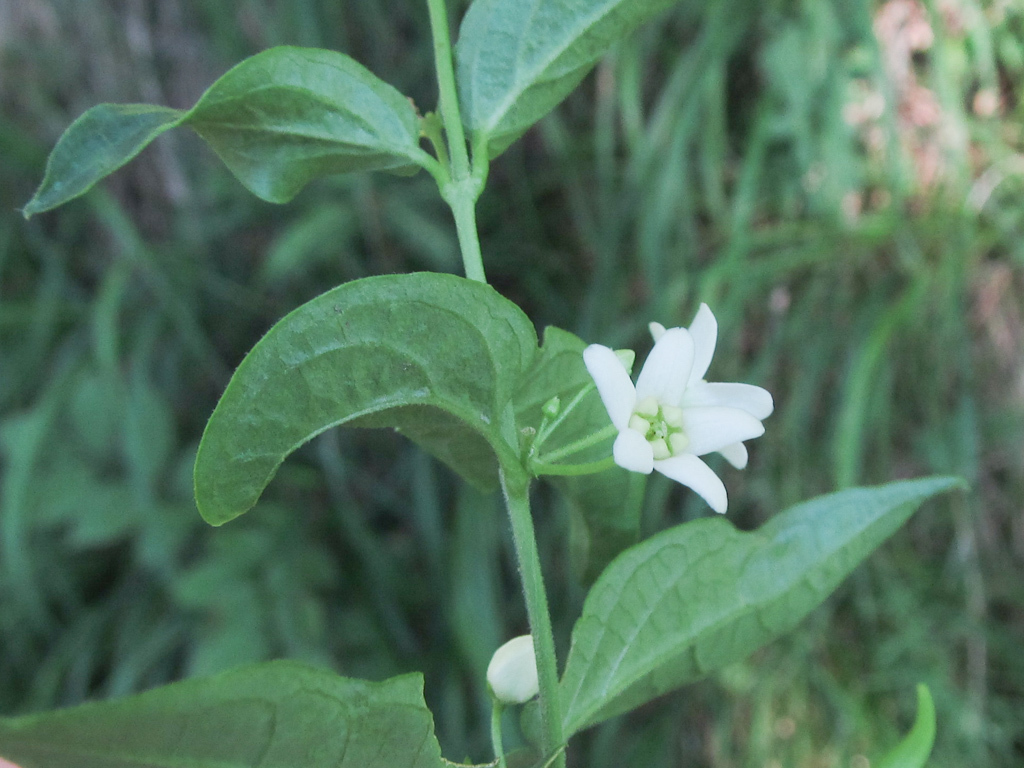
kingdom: Plantae
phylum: Tracheophyta
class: Magnoliopsida
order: Gentianales
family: Apocynaceae
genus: Vincetoxicum
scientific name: Vincetoxicum hirundinaria
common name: White swallowwort
